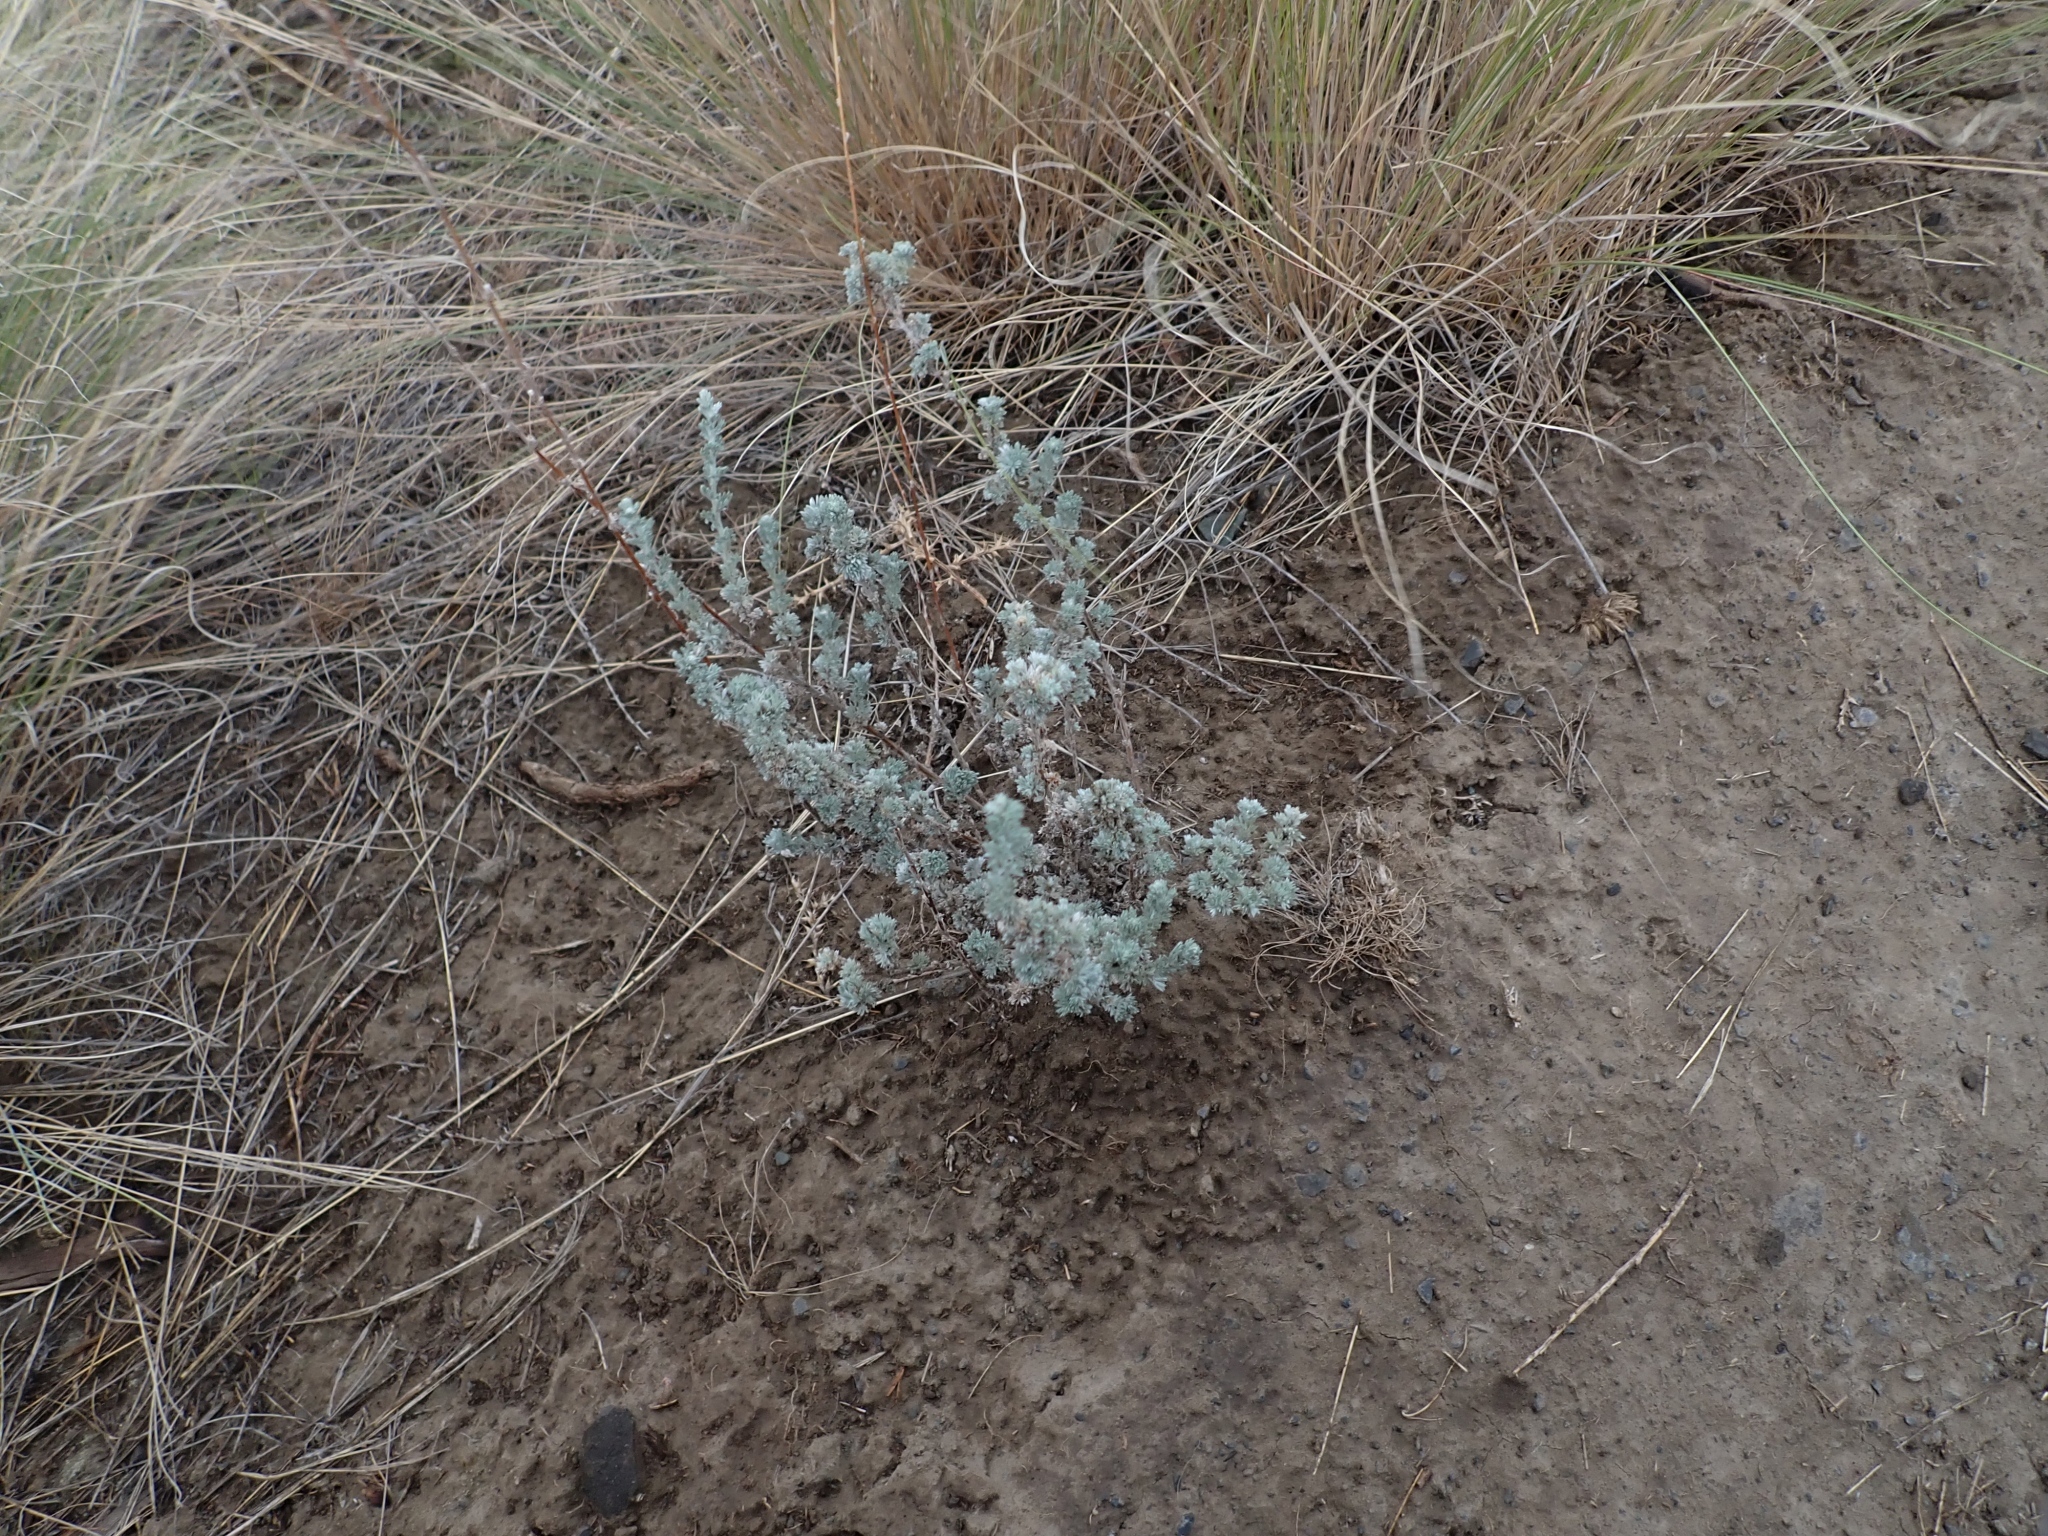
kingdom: Plantae
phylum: Tracheophyta
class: Magnoliopsida
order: Asterales
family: Asteraceae
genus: Artemisia
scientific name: Artemisia frigida
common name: Prairie sagewort
